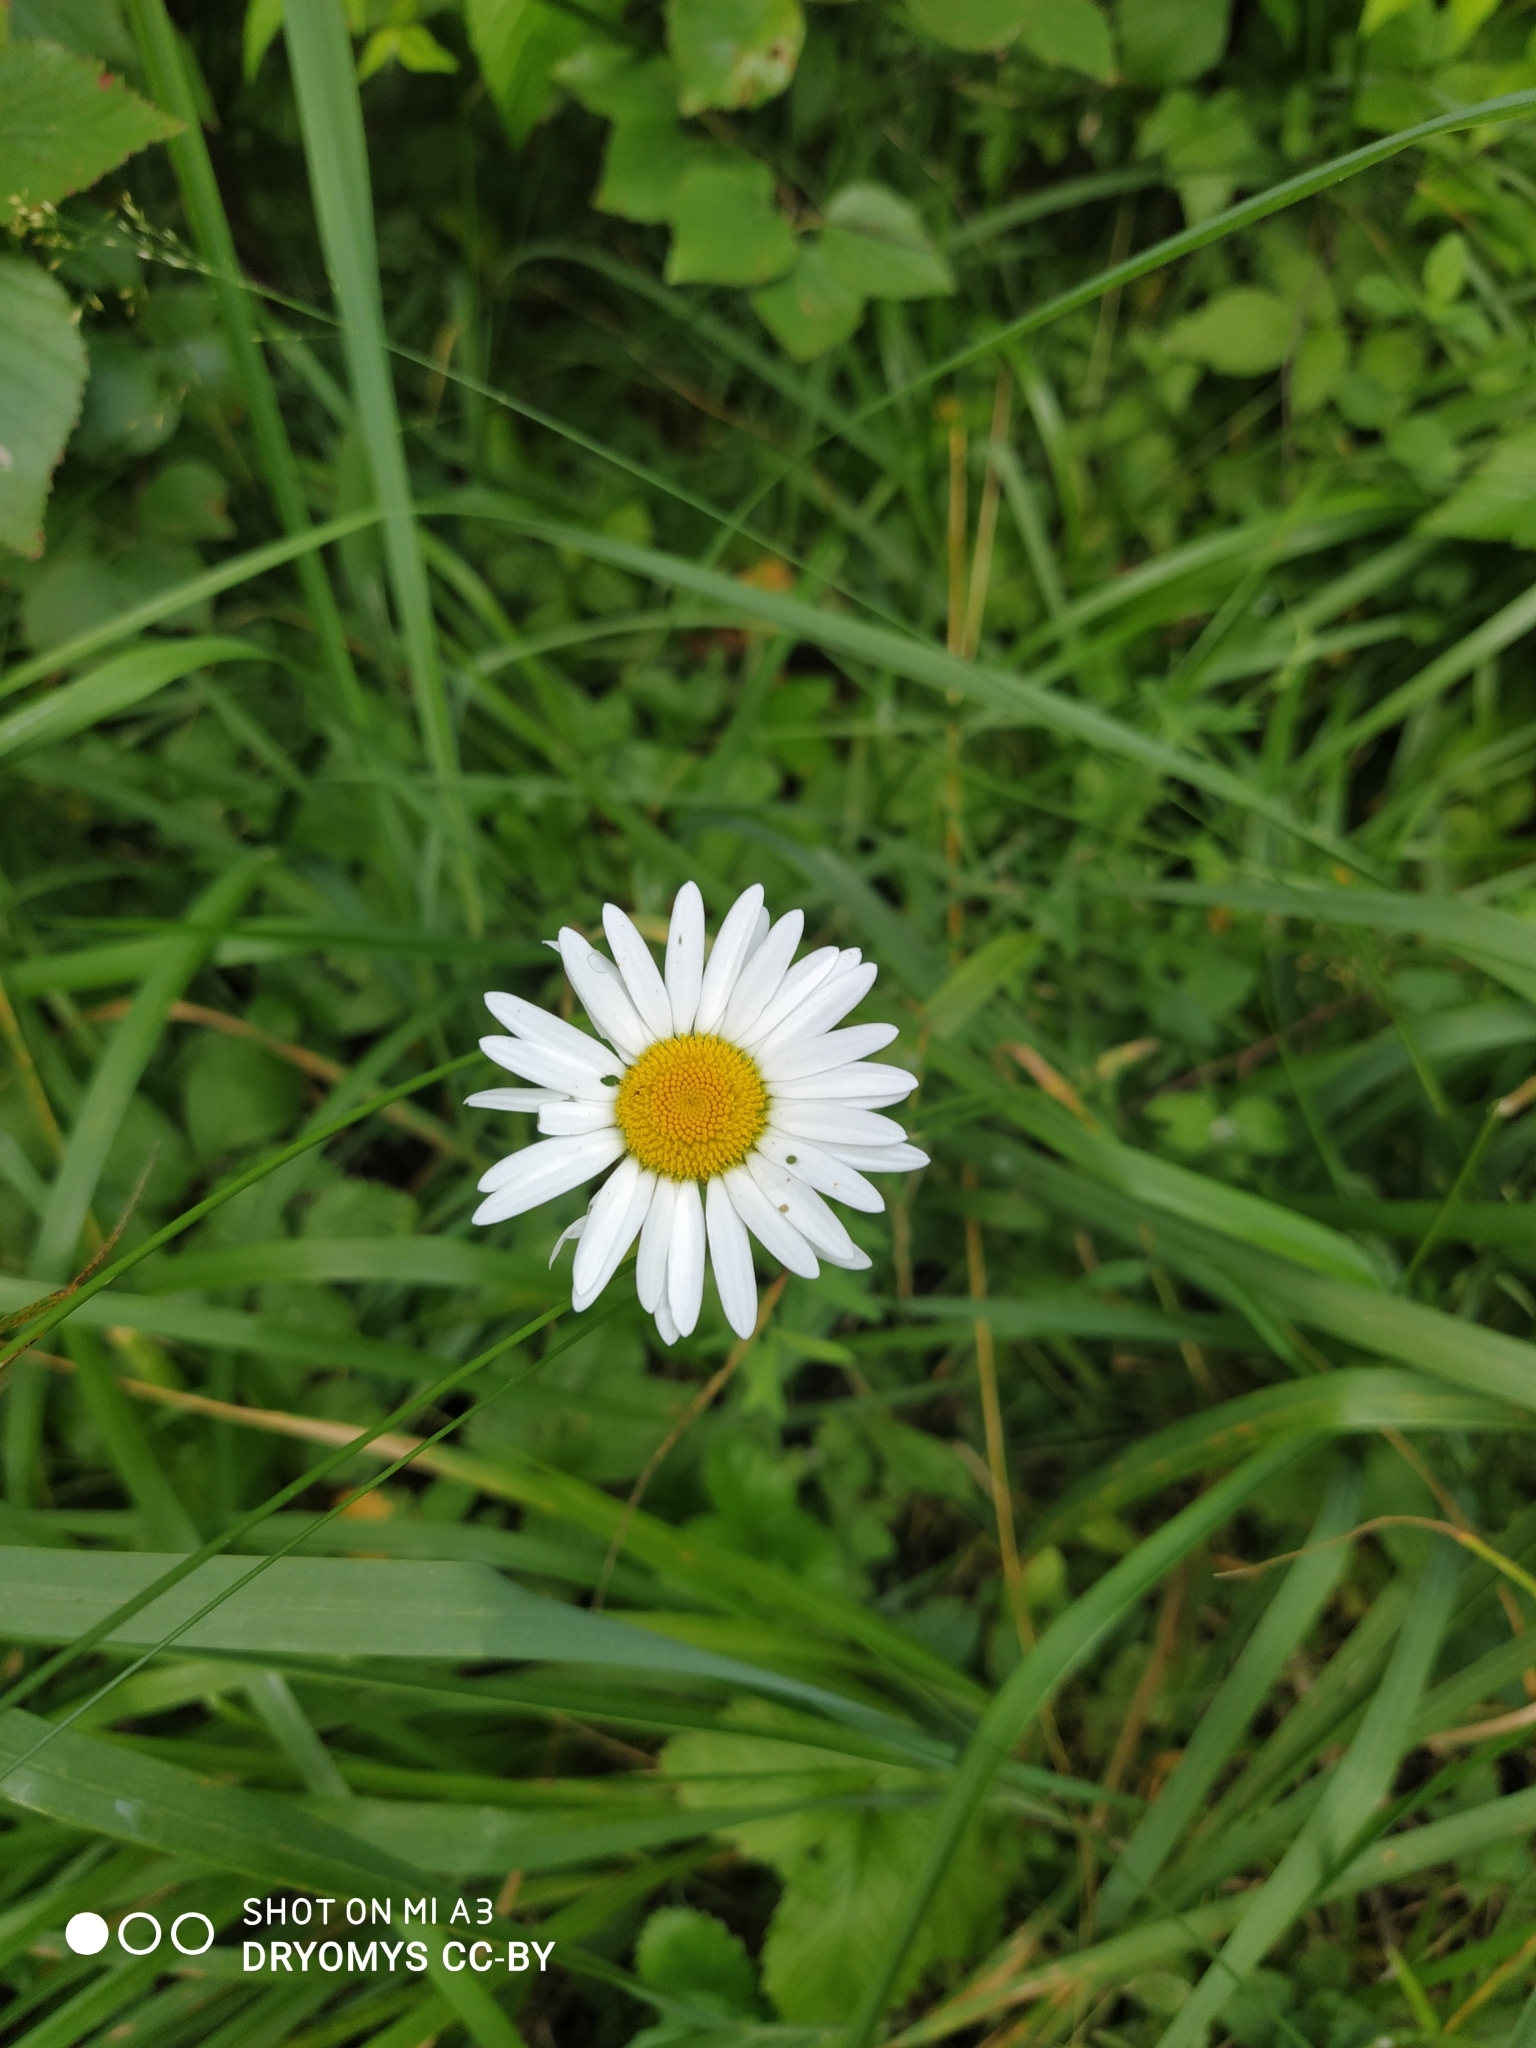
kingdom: Plantae
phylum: Tracheophyta
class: Magnoliopsida
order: Asterales
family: Asteraceae
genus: Leucanthemum
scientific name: Leucanthemum vulgare
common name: Oxeye daisy
